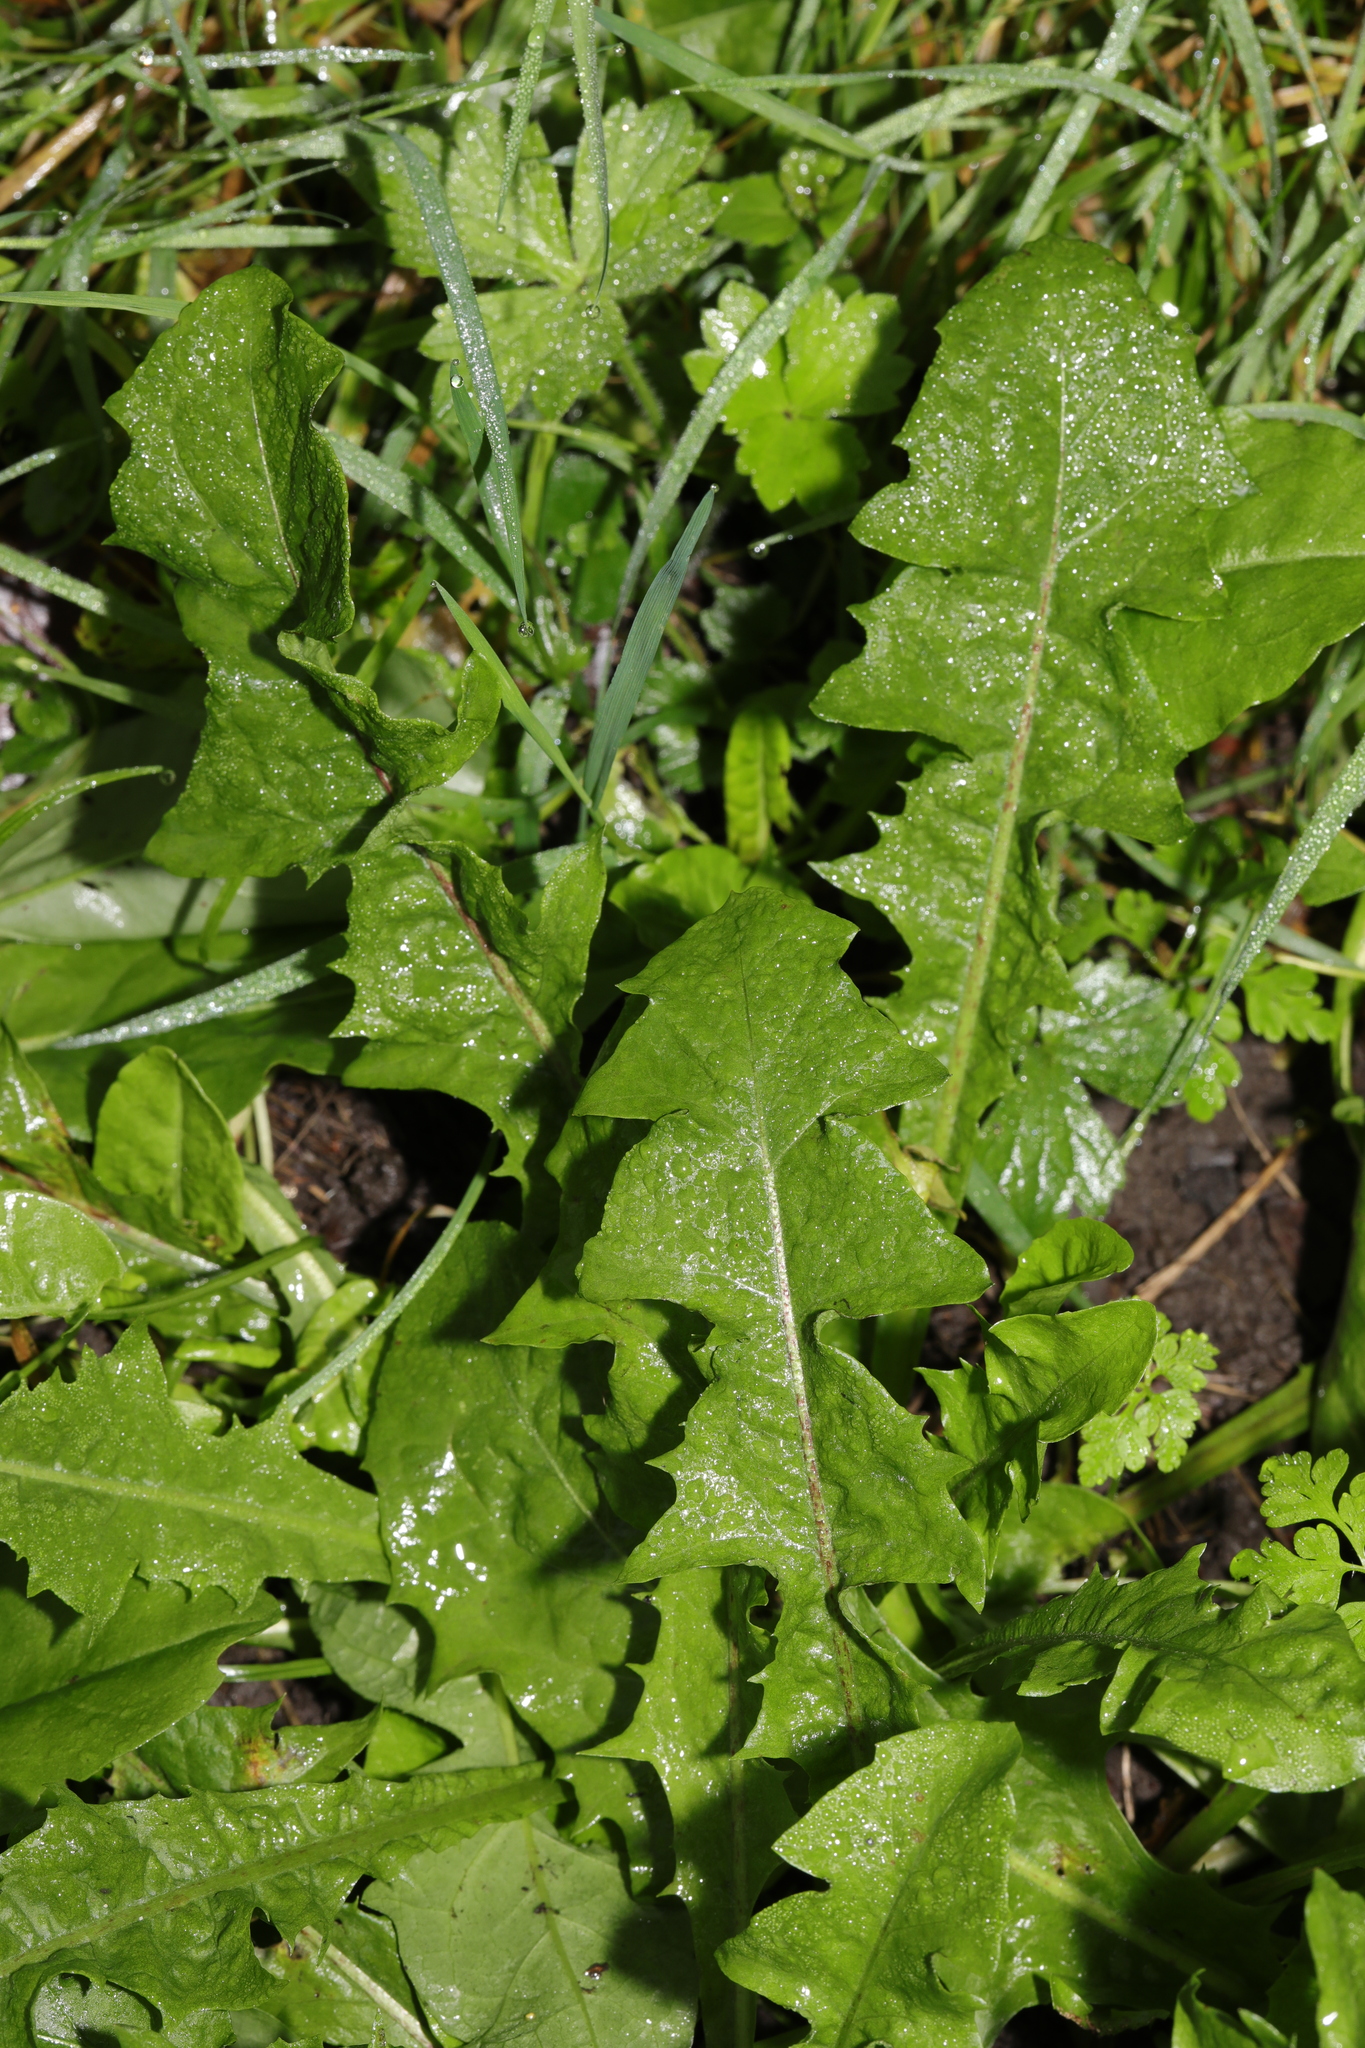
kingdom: Plantae
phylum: Tracheophyta
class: Magnoliopsida
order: Asterales
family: Asteraceae
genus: Taraxacum
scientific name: Taraxacum officinale
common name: Common dandelion
